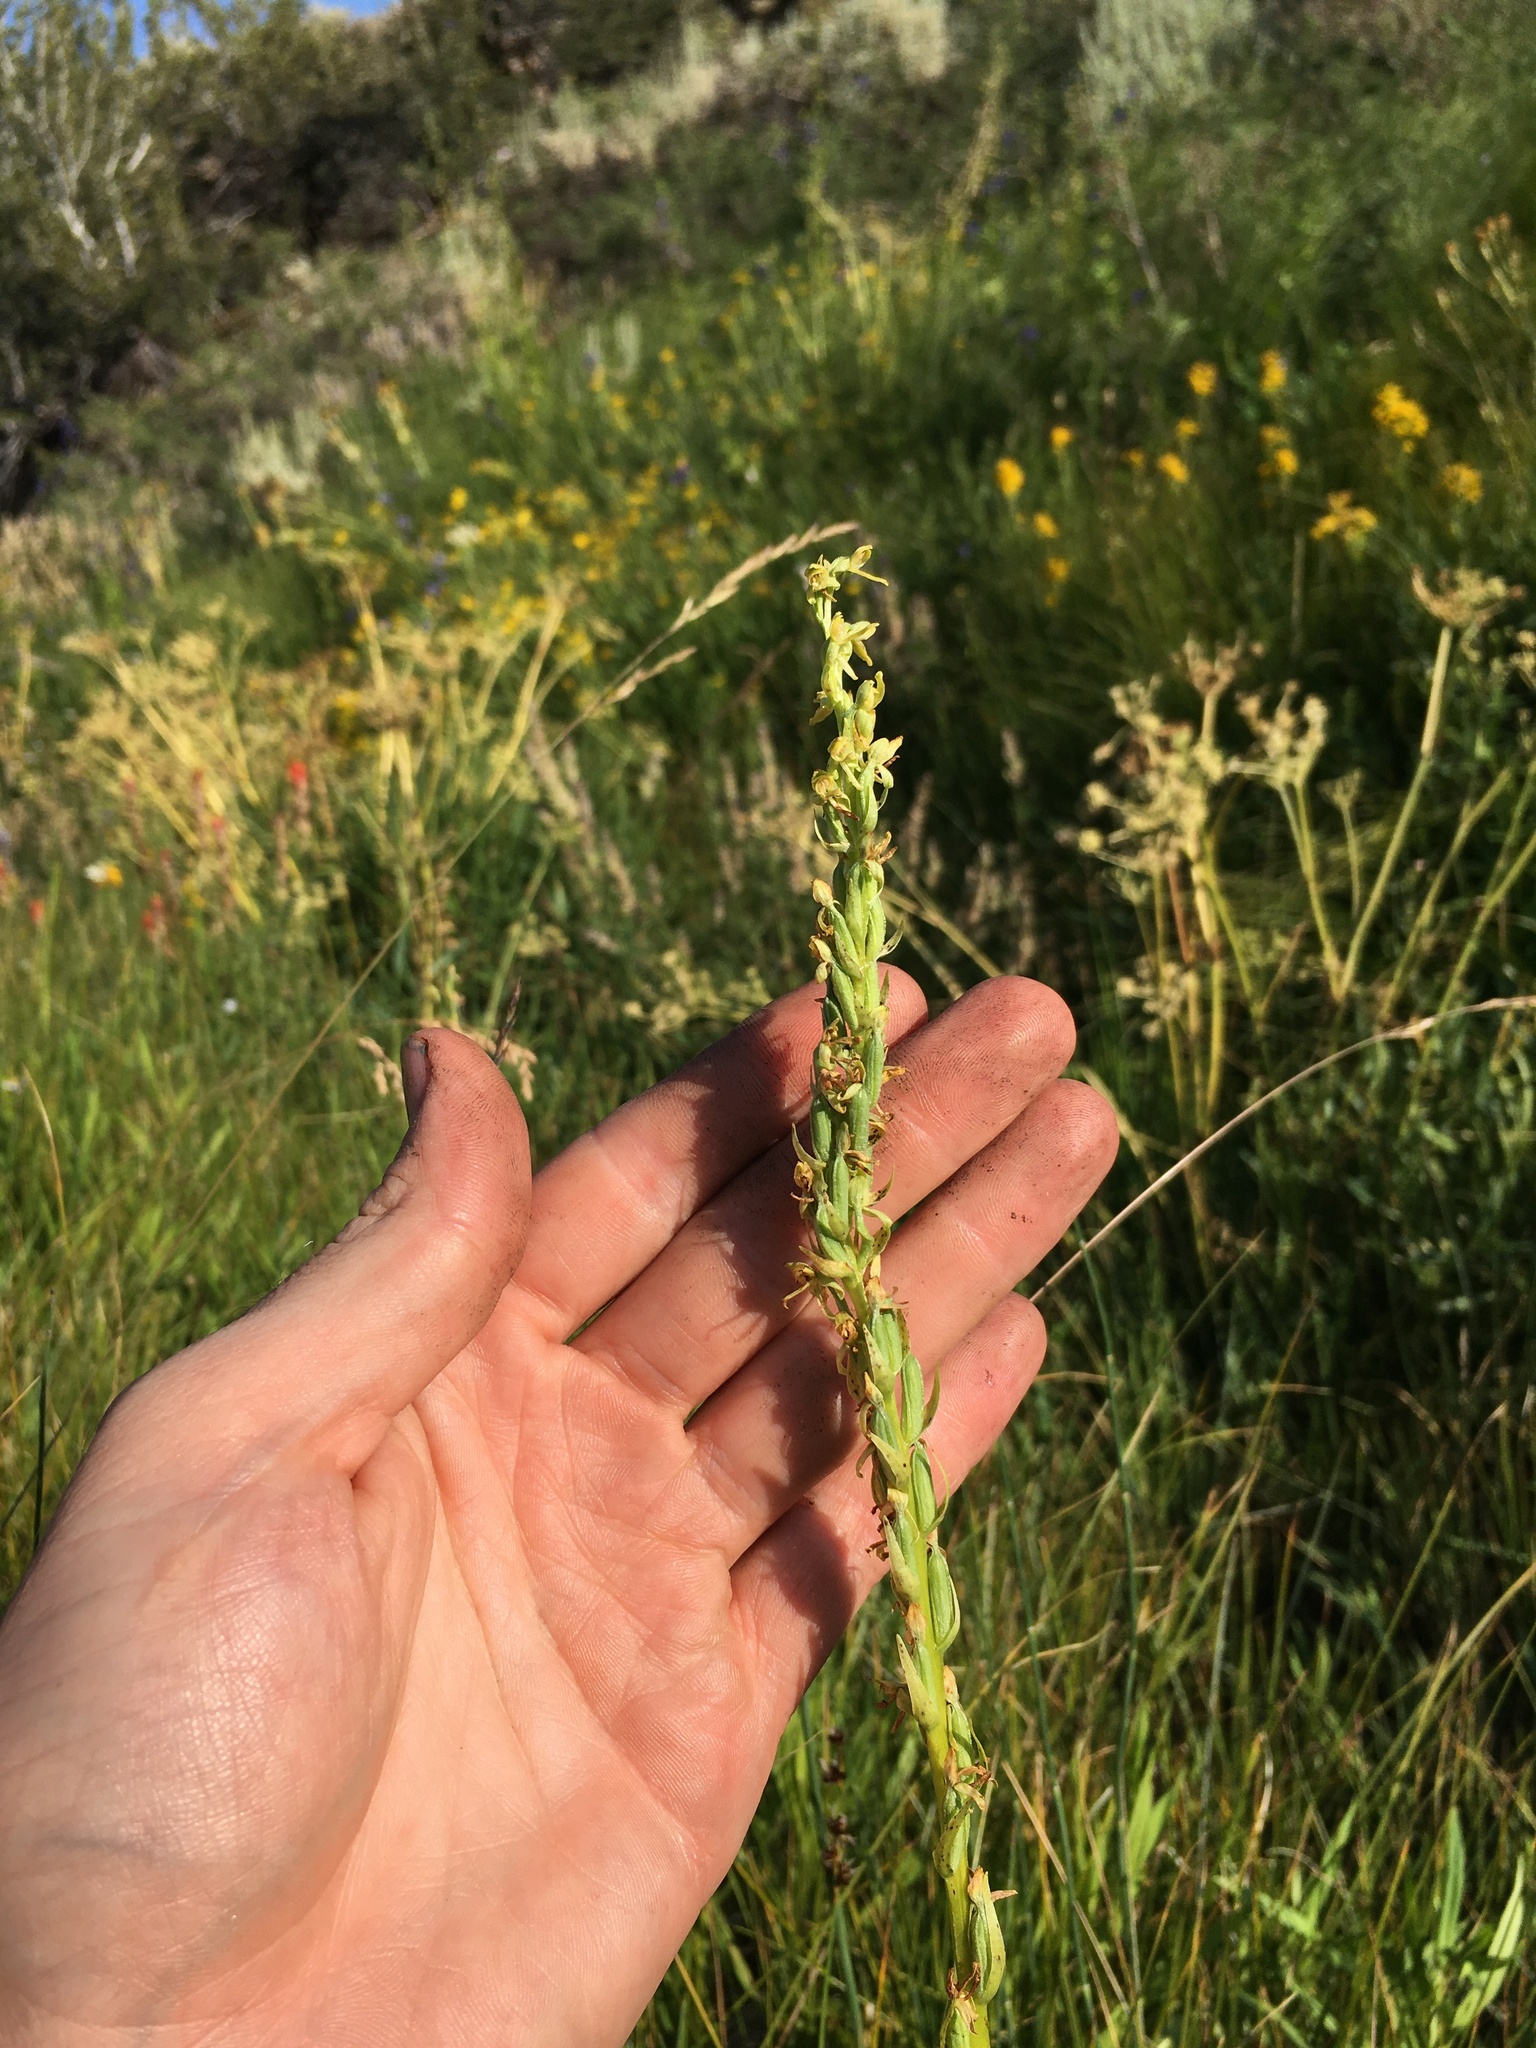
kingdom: Plantae
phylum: Tracheophyta
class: Liliopsida
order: Asparagales
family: Orchidaceae
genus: Platanthera
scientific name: Platanthera tescamnis
